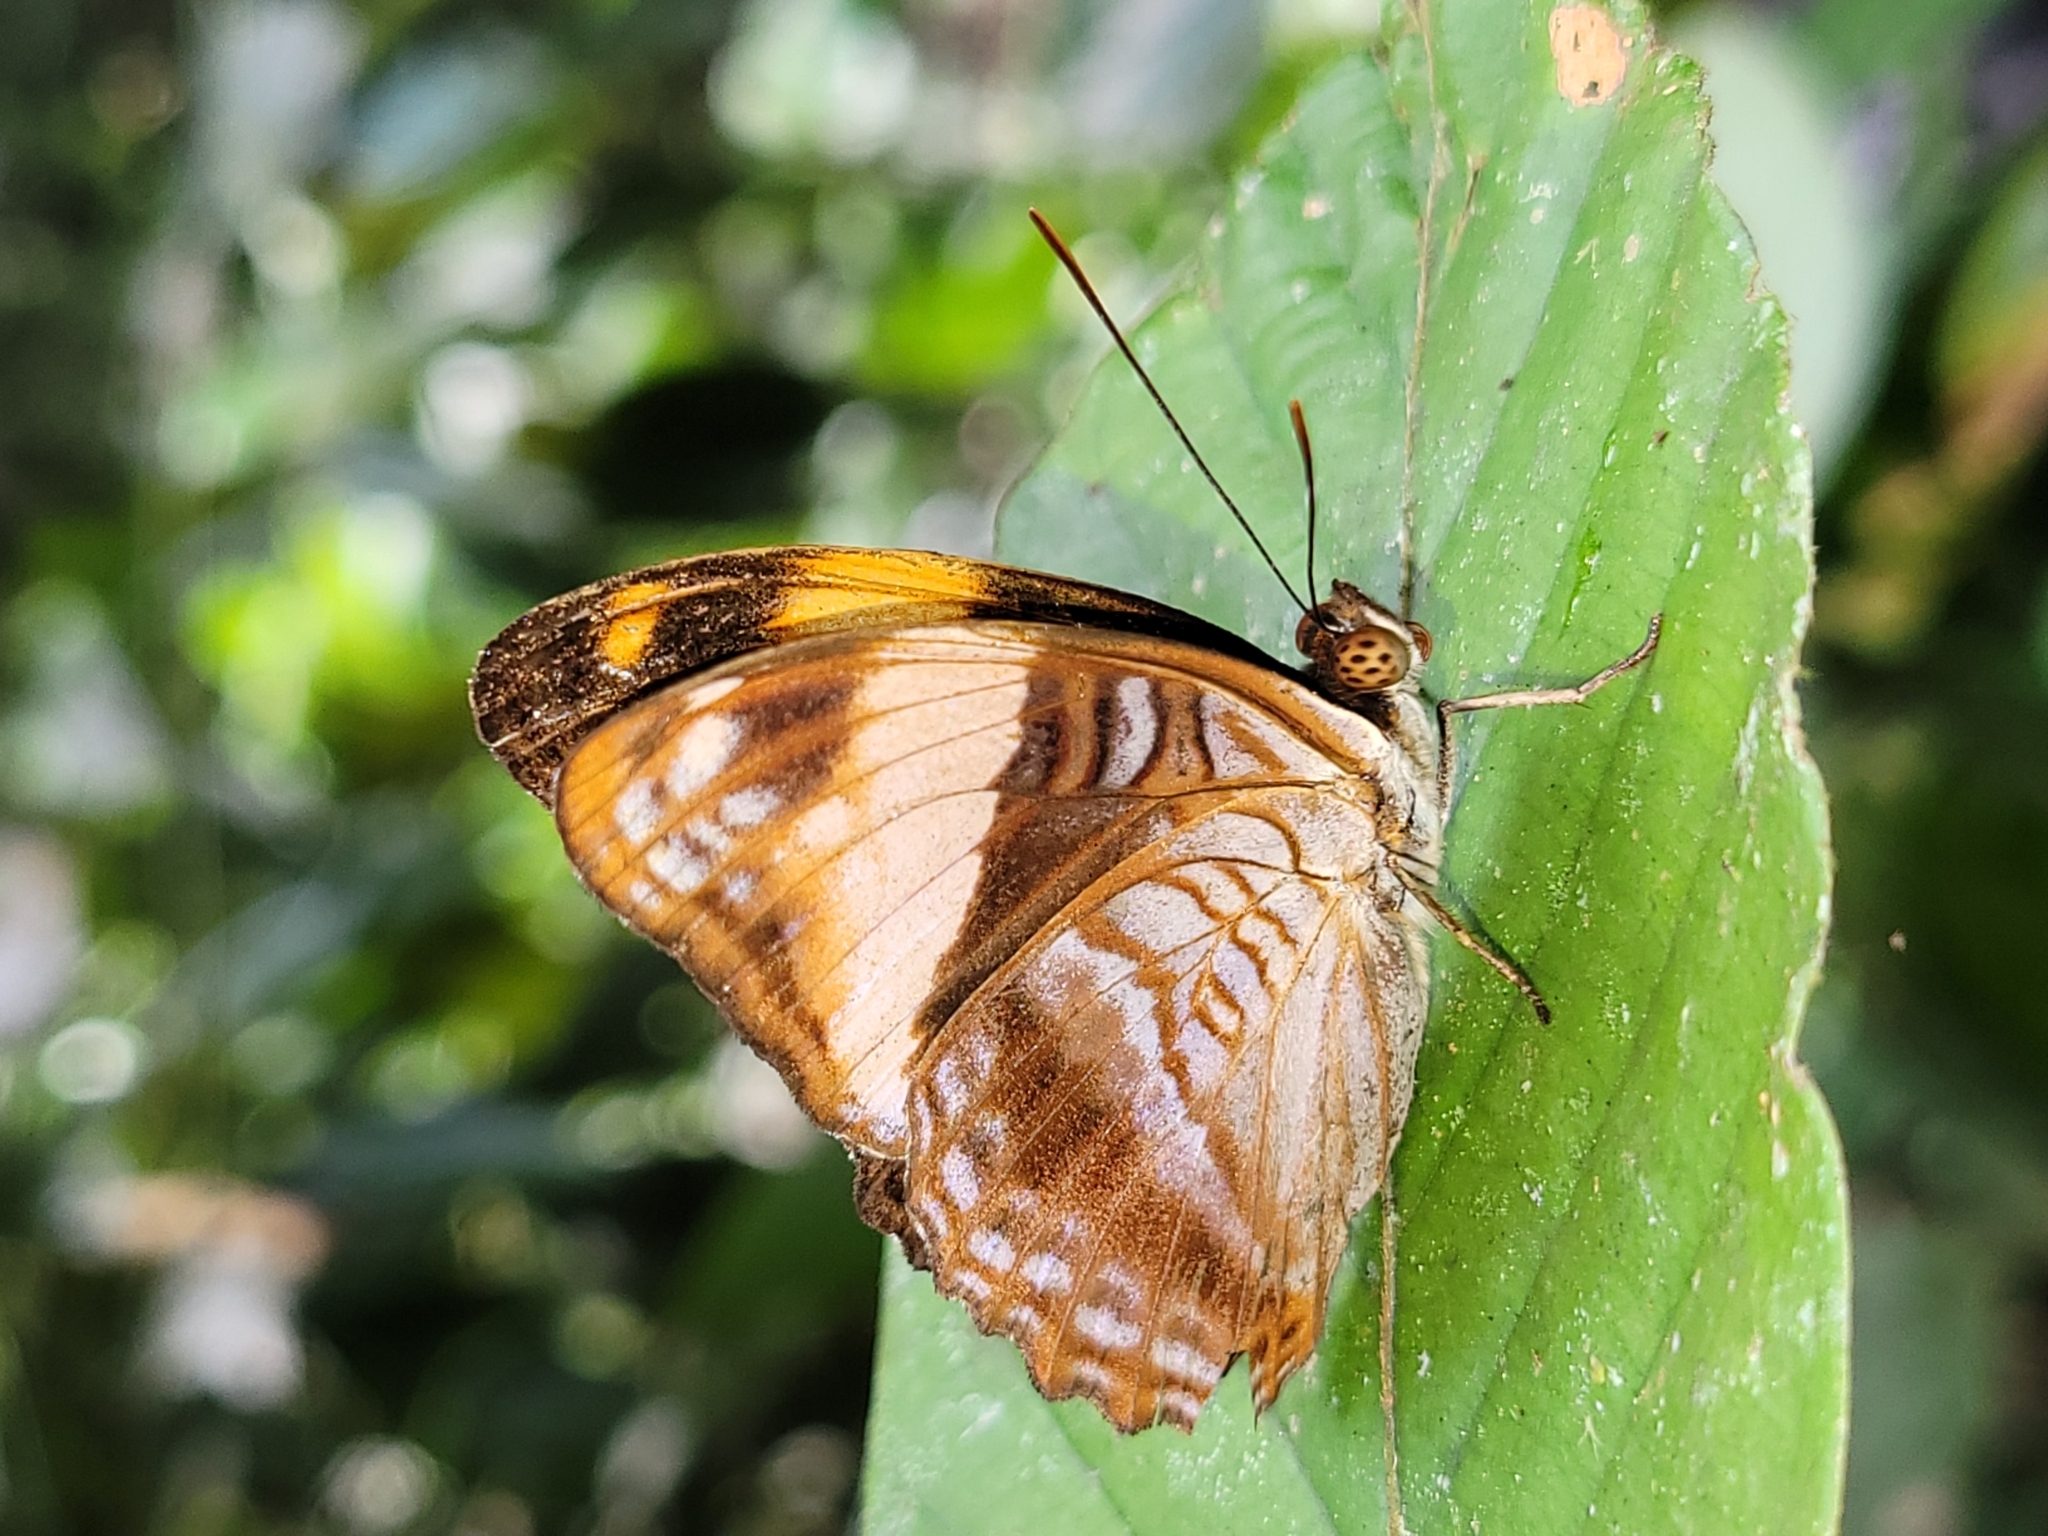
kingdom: Animalia
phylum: Arthropoda
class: Insecta
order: Lepidoptera
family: Nymphalidae
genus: Limenitis
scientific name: Limenitis boreas
